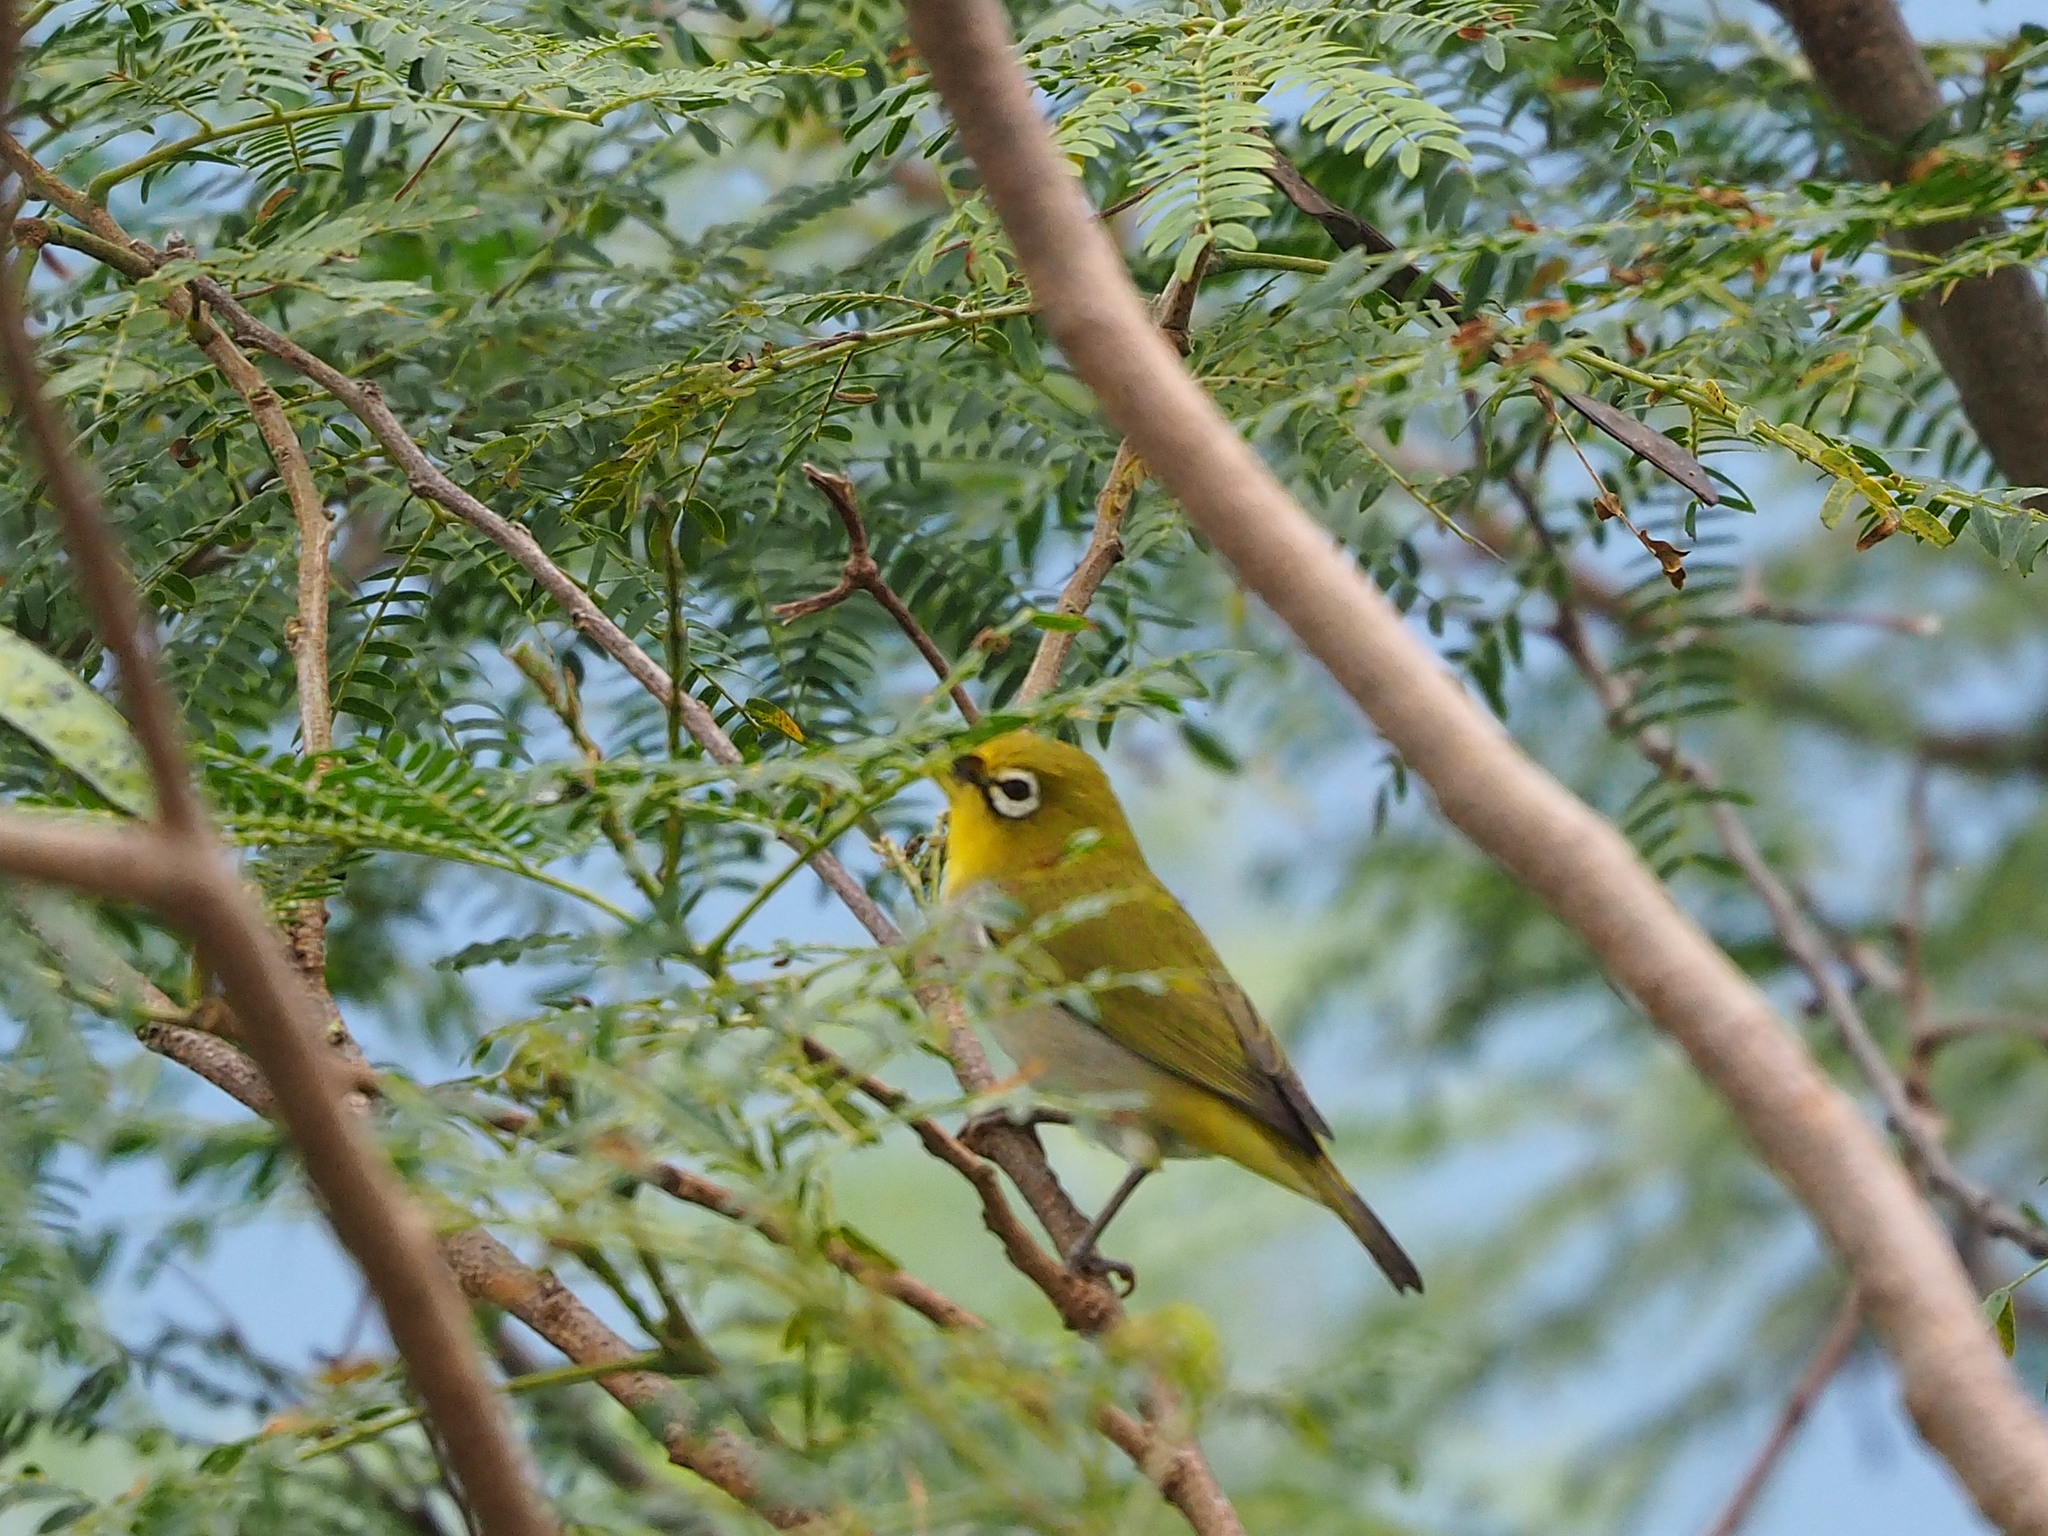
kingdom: Animalia
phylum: Chordata
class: Aves
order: Passeriformes
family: Zosteropidae
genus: Zosterops
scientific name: Zosterops simplex
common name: Swinhoe's white-eye
